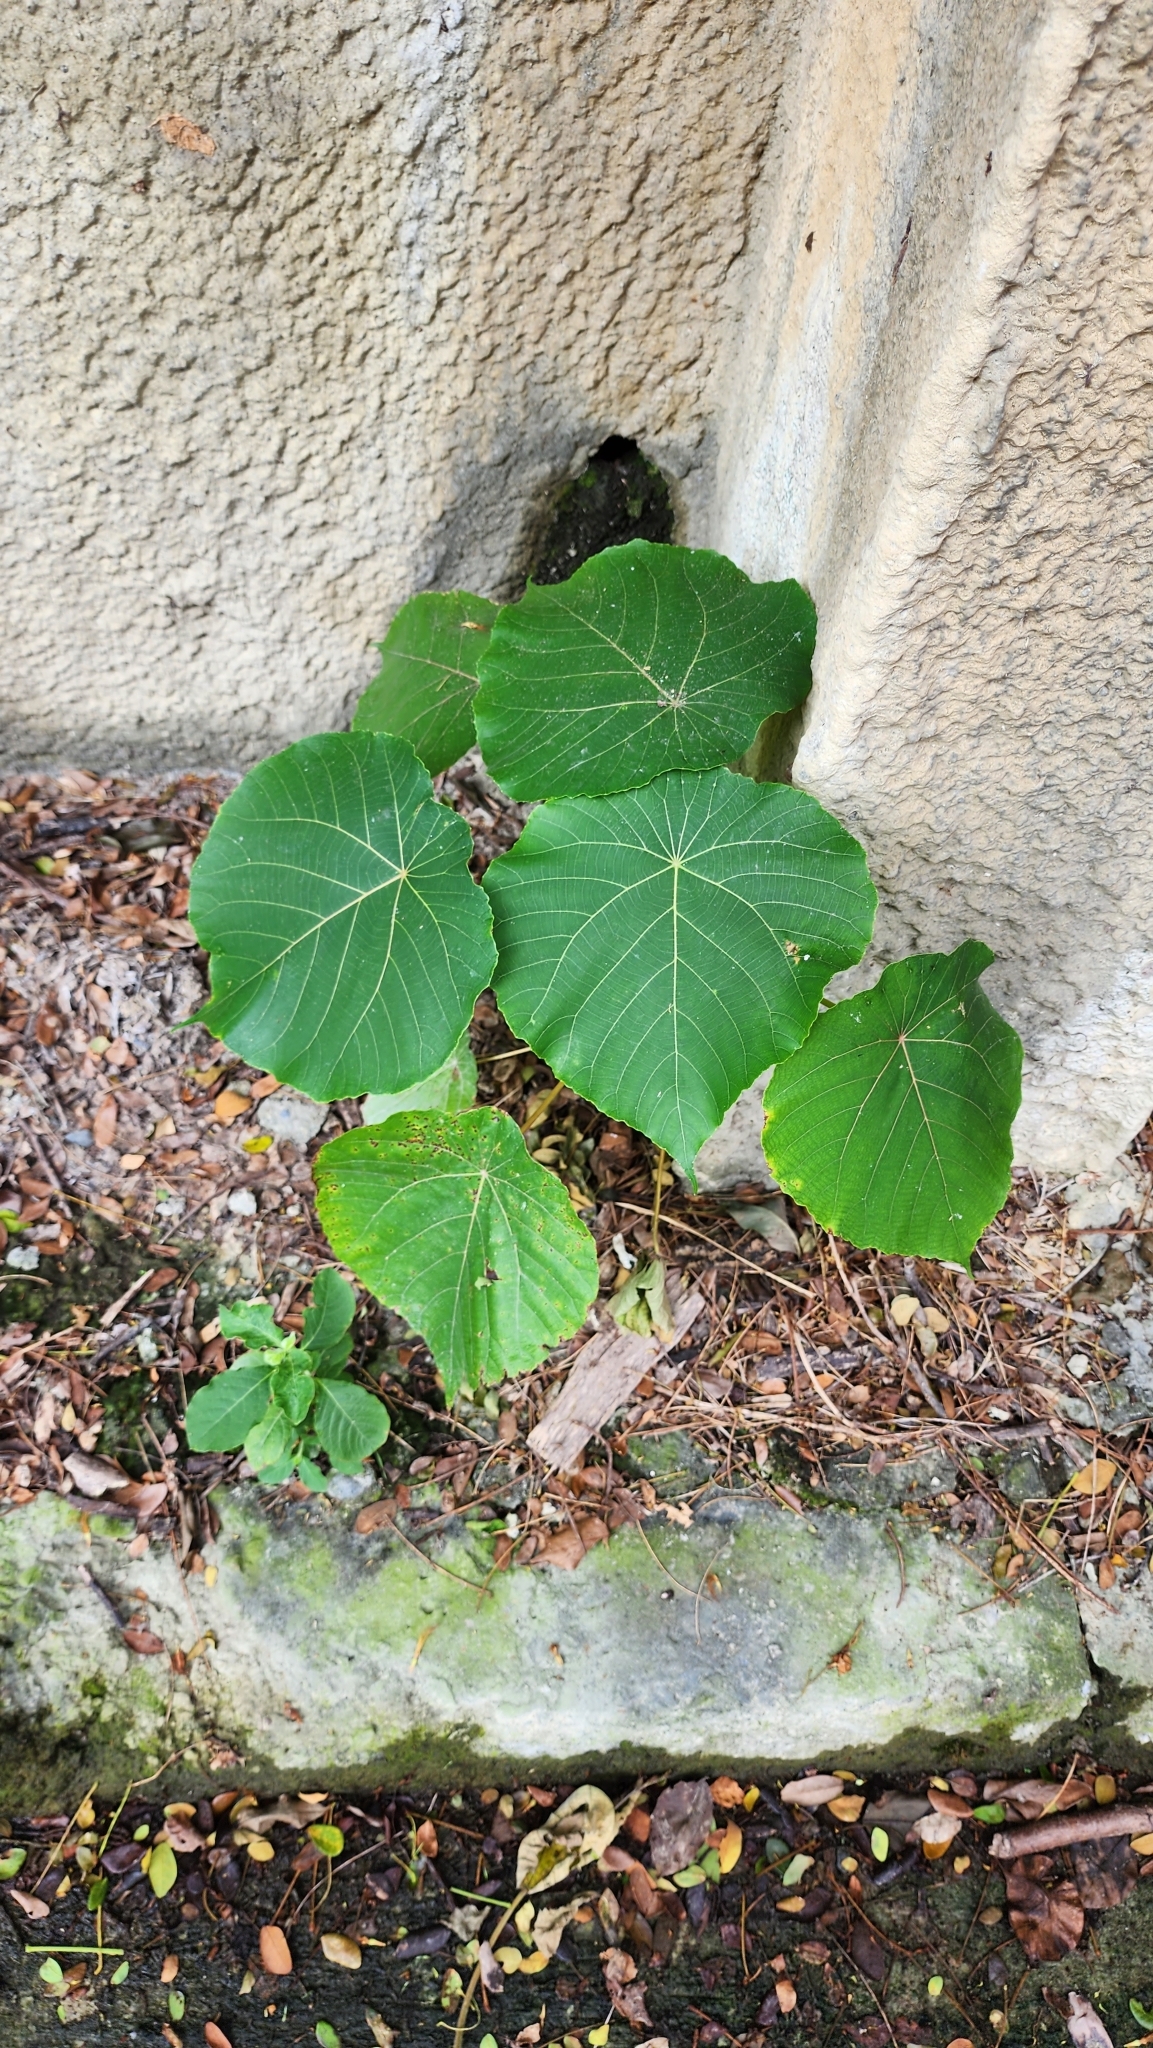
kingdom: Plantae
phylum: Tracheophyta
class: Magnoliopsida
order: Malpighiales
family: Euphorbiaceae
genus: Macaranga
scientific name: Macaranga tanarius
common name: Parasol leaf tree
